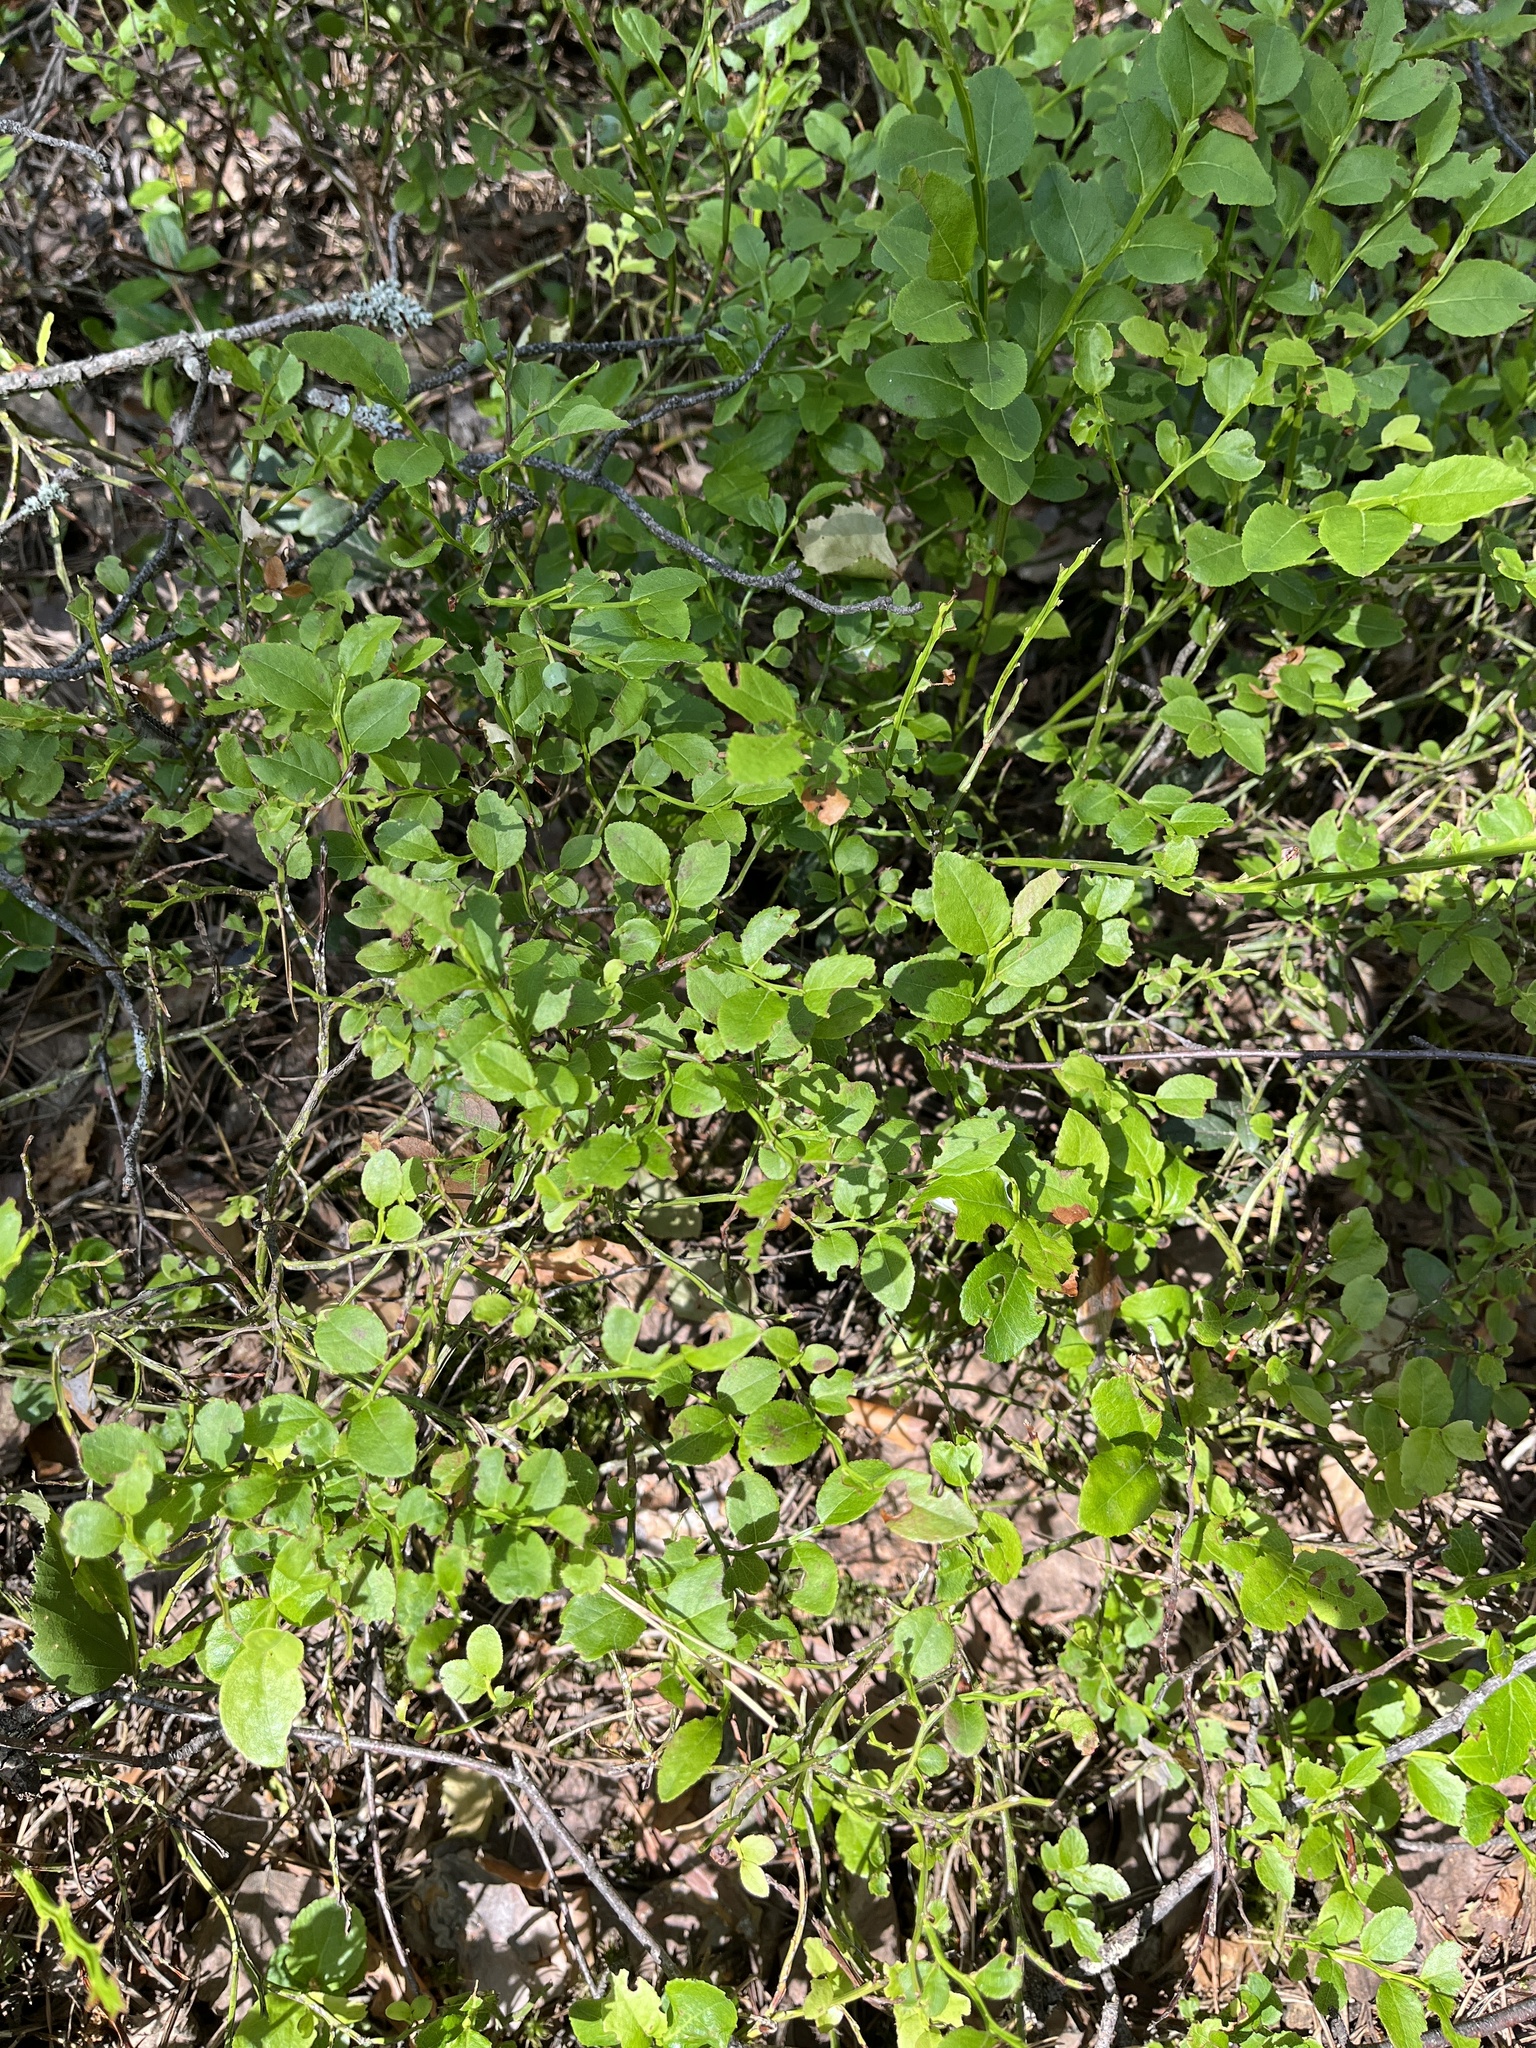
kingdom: Plantae
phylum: Tracheophyta
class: Magnoliopsida
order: Ericales
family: Ericaceae
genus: Vaccinium
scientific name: Vaccinium myrtillus
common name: Bilberry
